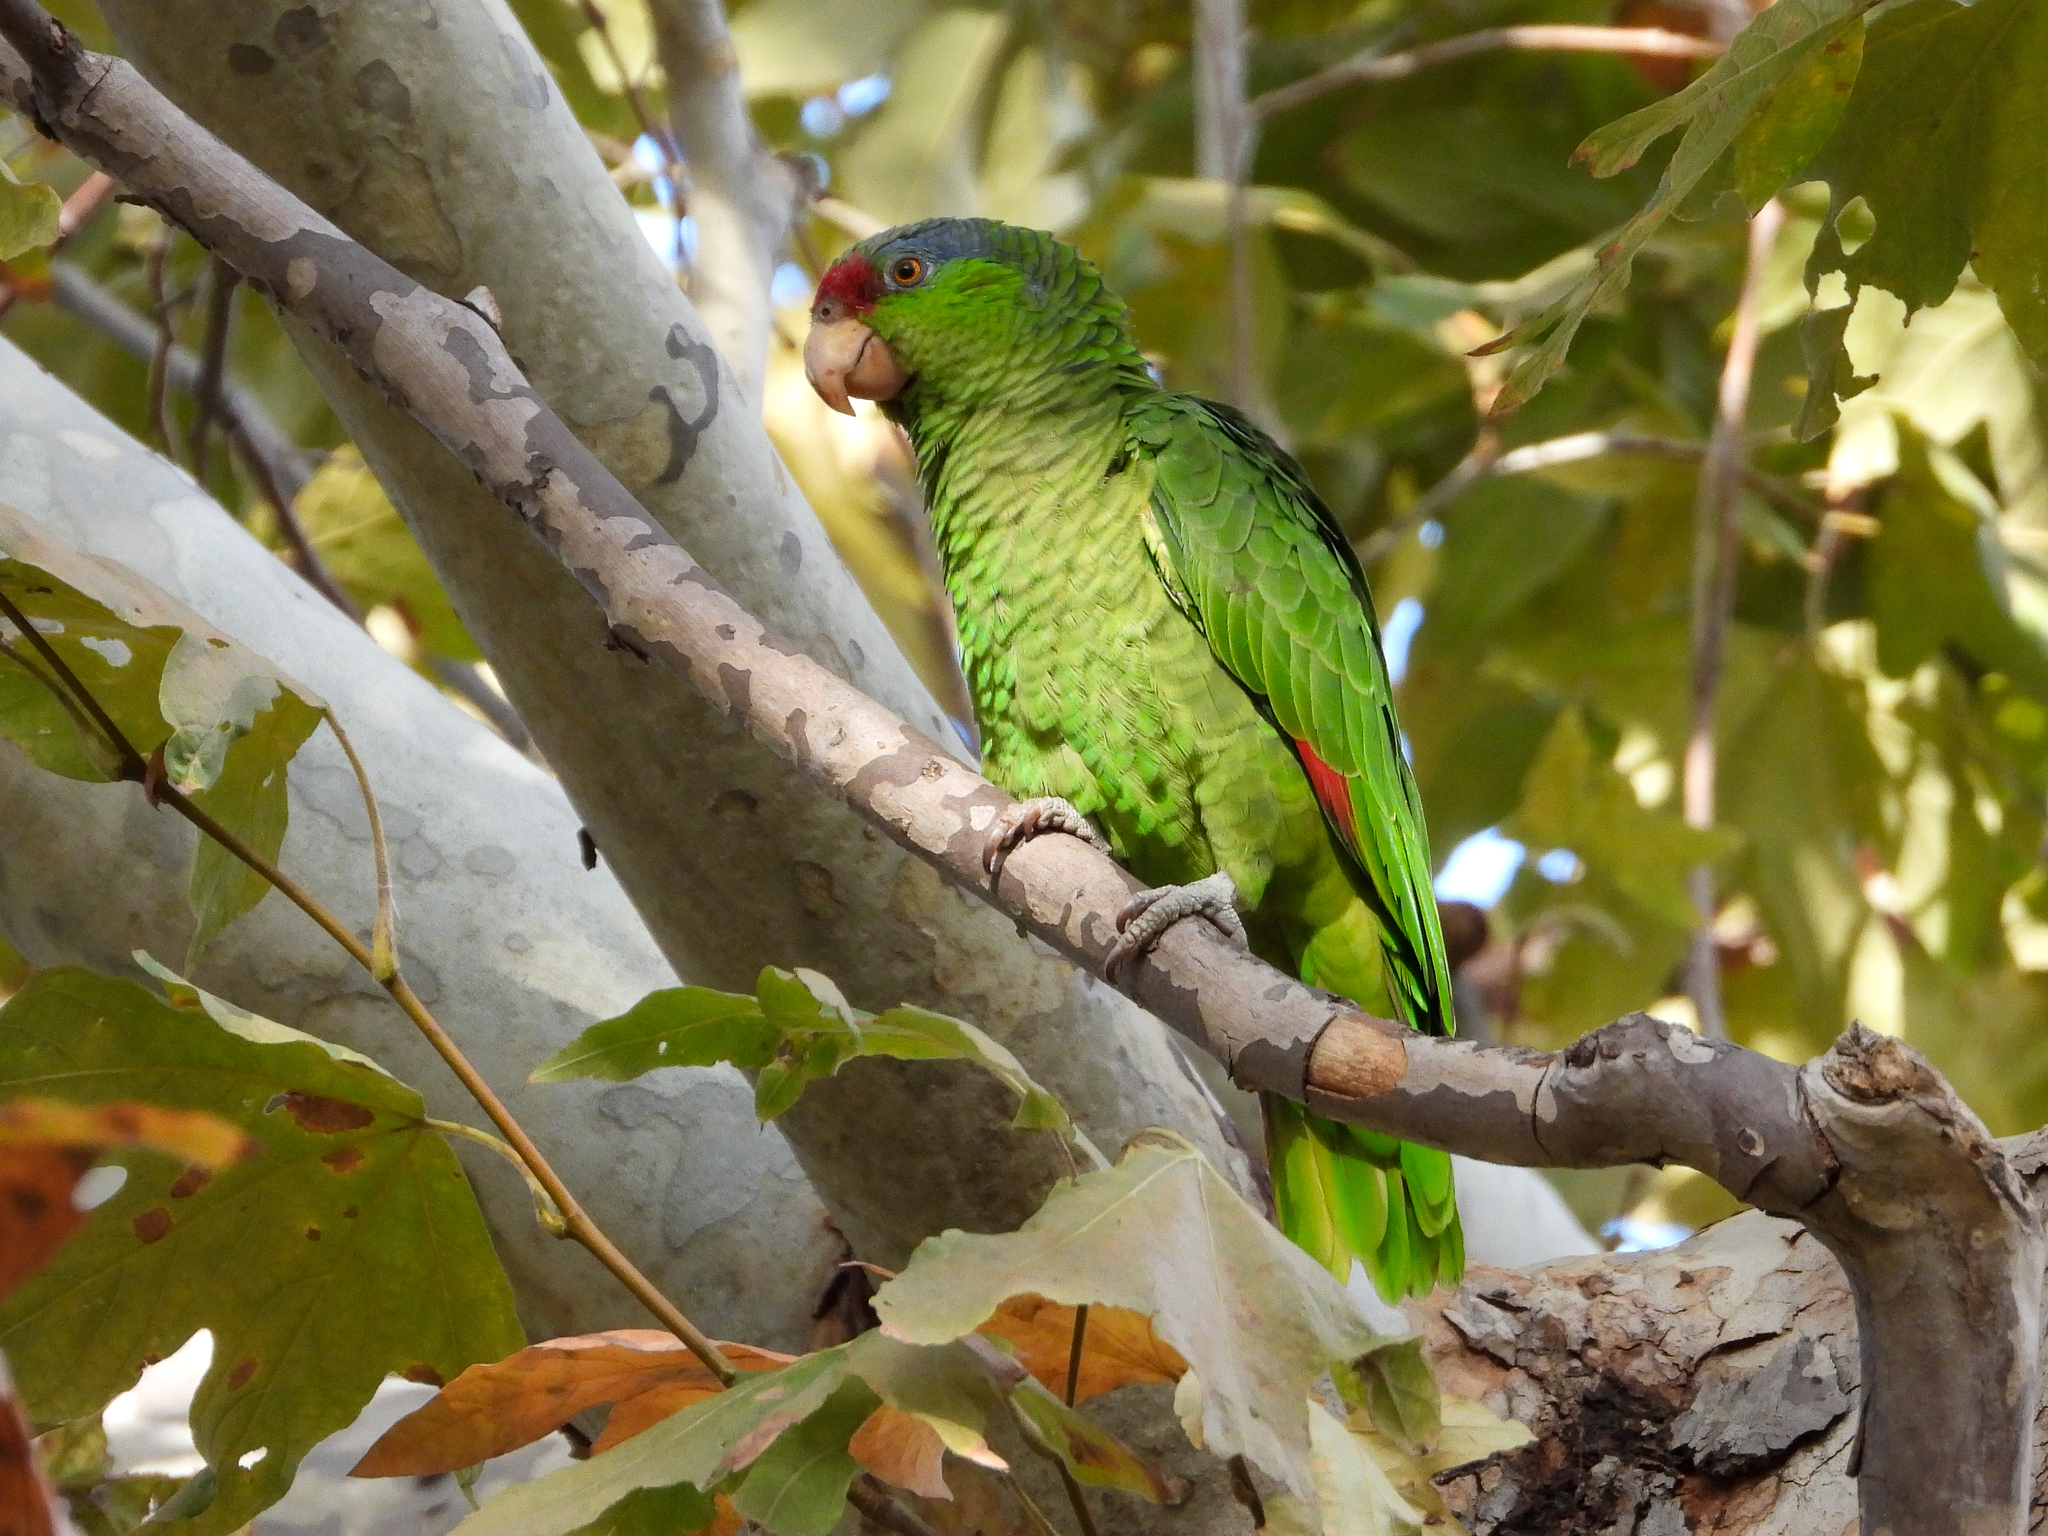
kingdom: Animalia
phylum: Chordata
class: Aves
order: Psittaciformes
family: Psittacidae
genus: Amazona
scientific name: Amazona viridigenalis
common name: Red-crowned amazon
